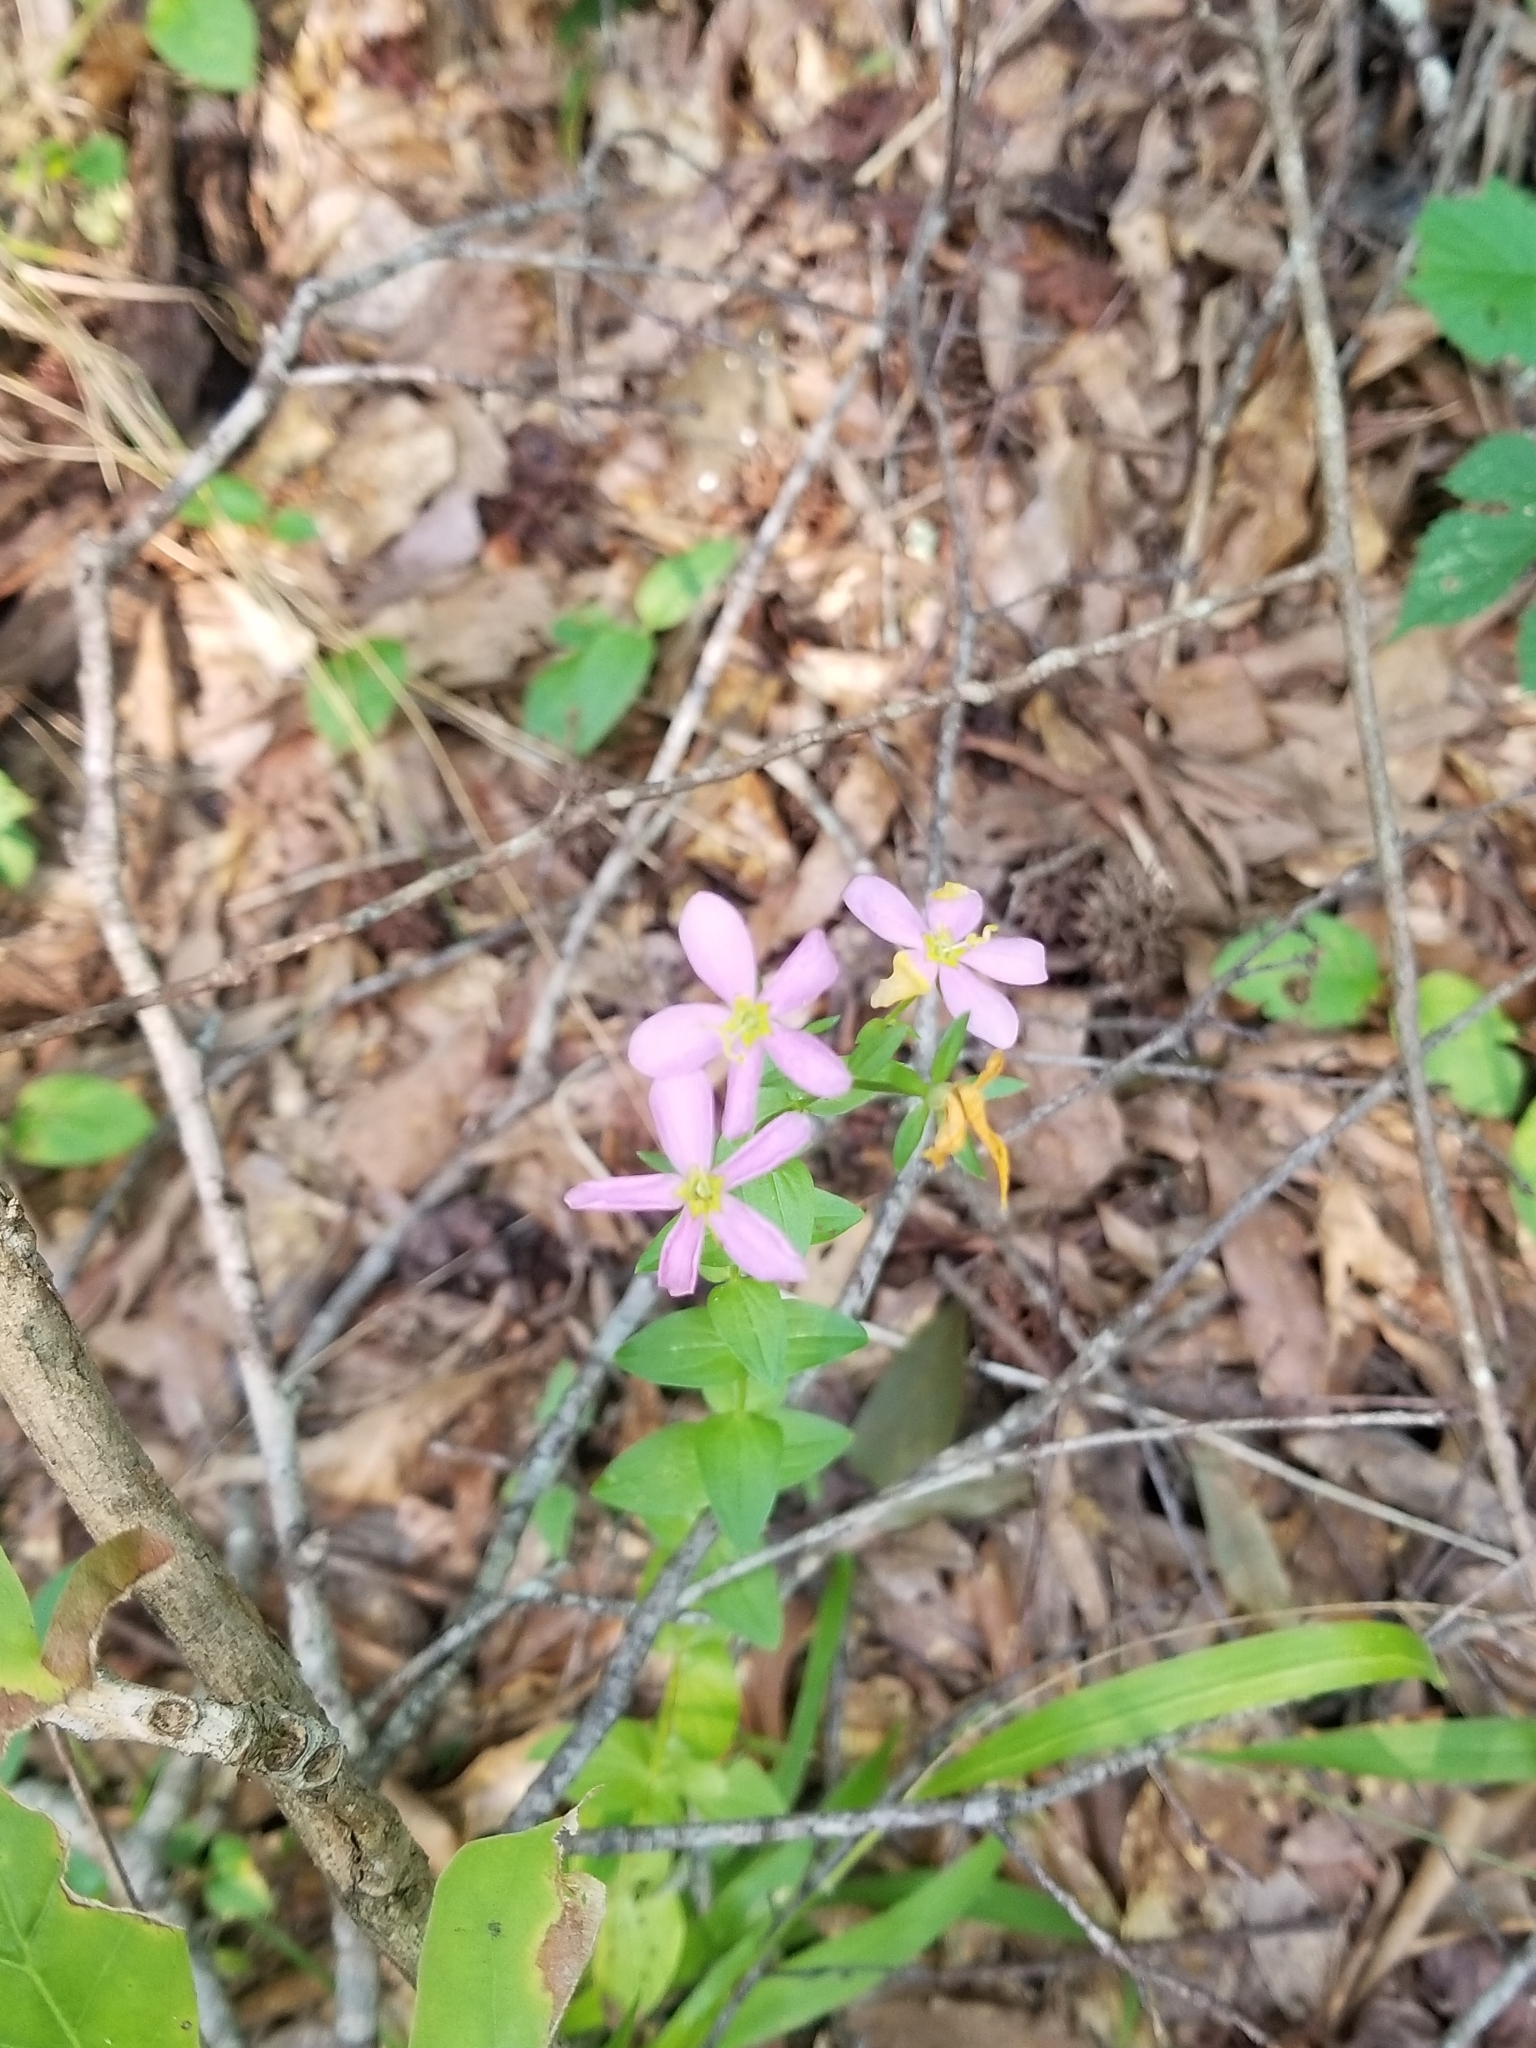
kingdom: Plantae
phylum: Tracheophyta
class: Magnoliopsida
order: Gentianales
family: Gentianaceae
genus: Sabatia
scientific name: Sabatia angularis
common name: Rose-pink
